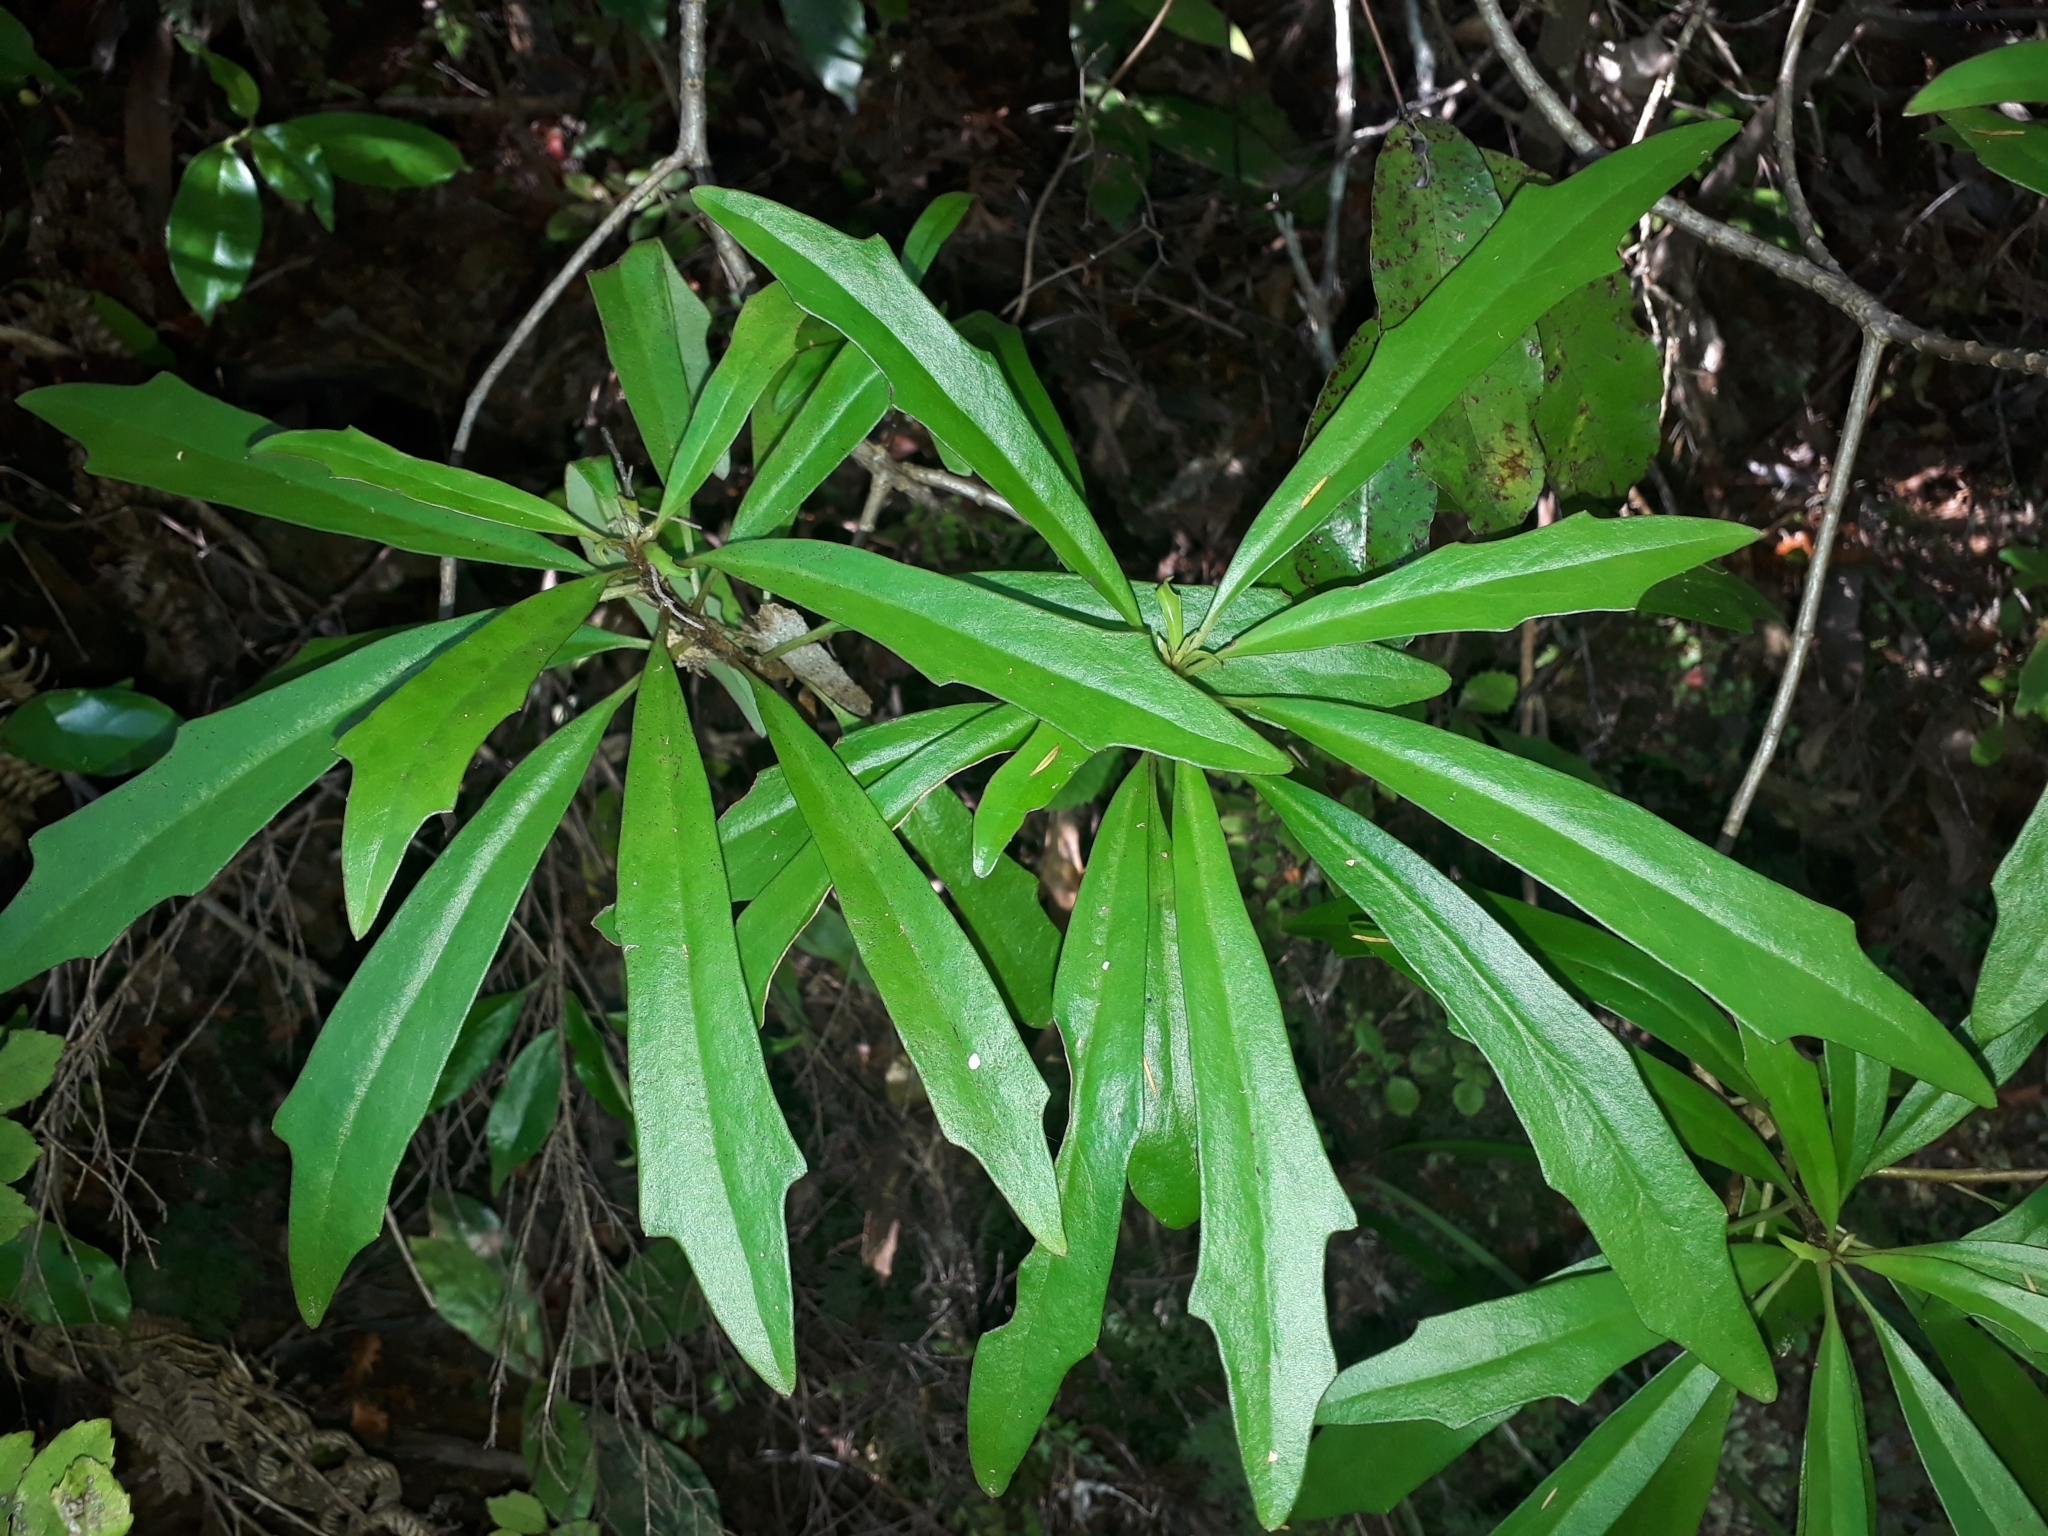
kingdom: Plantae
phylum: Tracheophyta
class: Magnoliopsida
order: Asterales
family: Asteraceae
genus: Brachyglottis
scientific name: Brachyglottis kirkii
